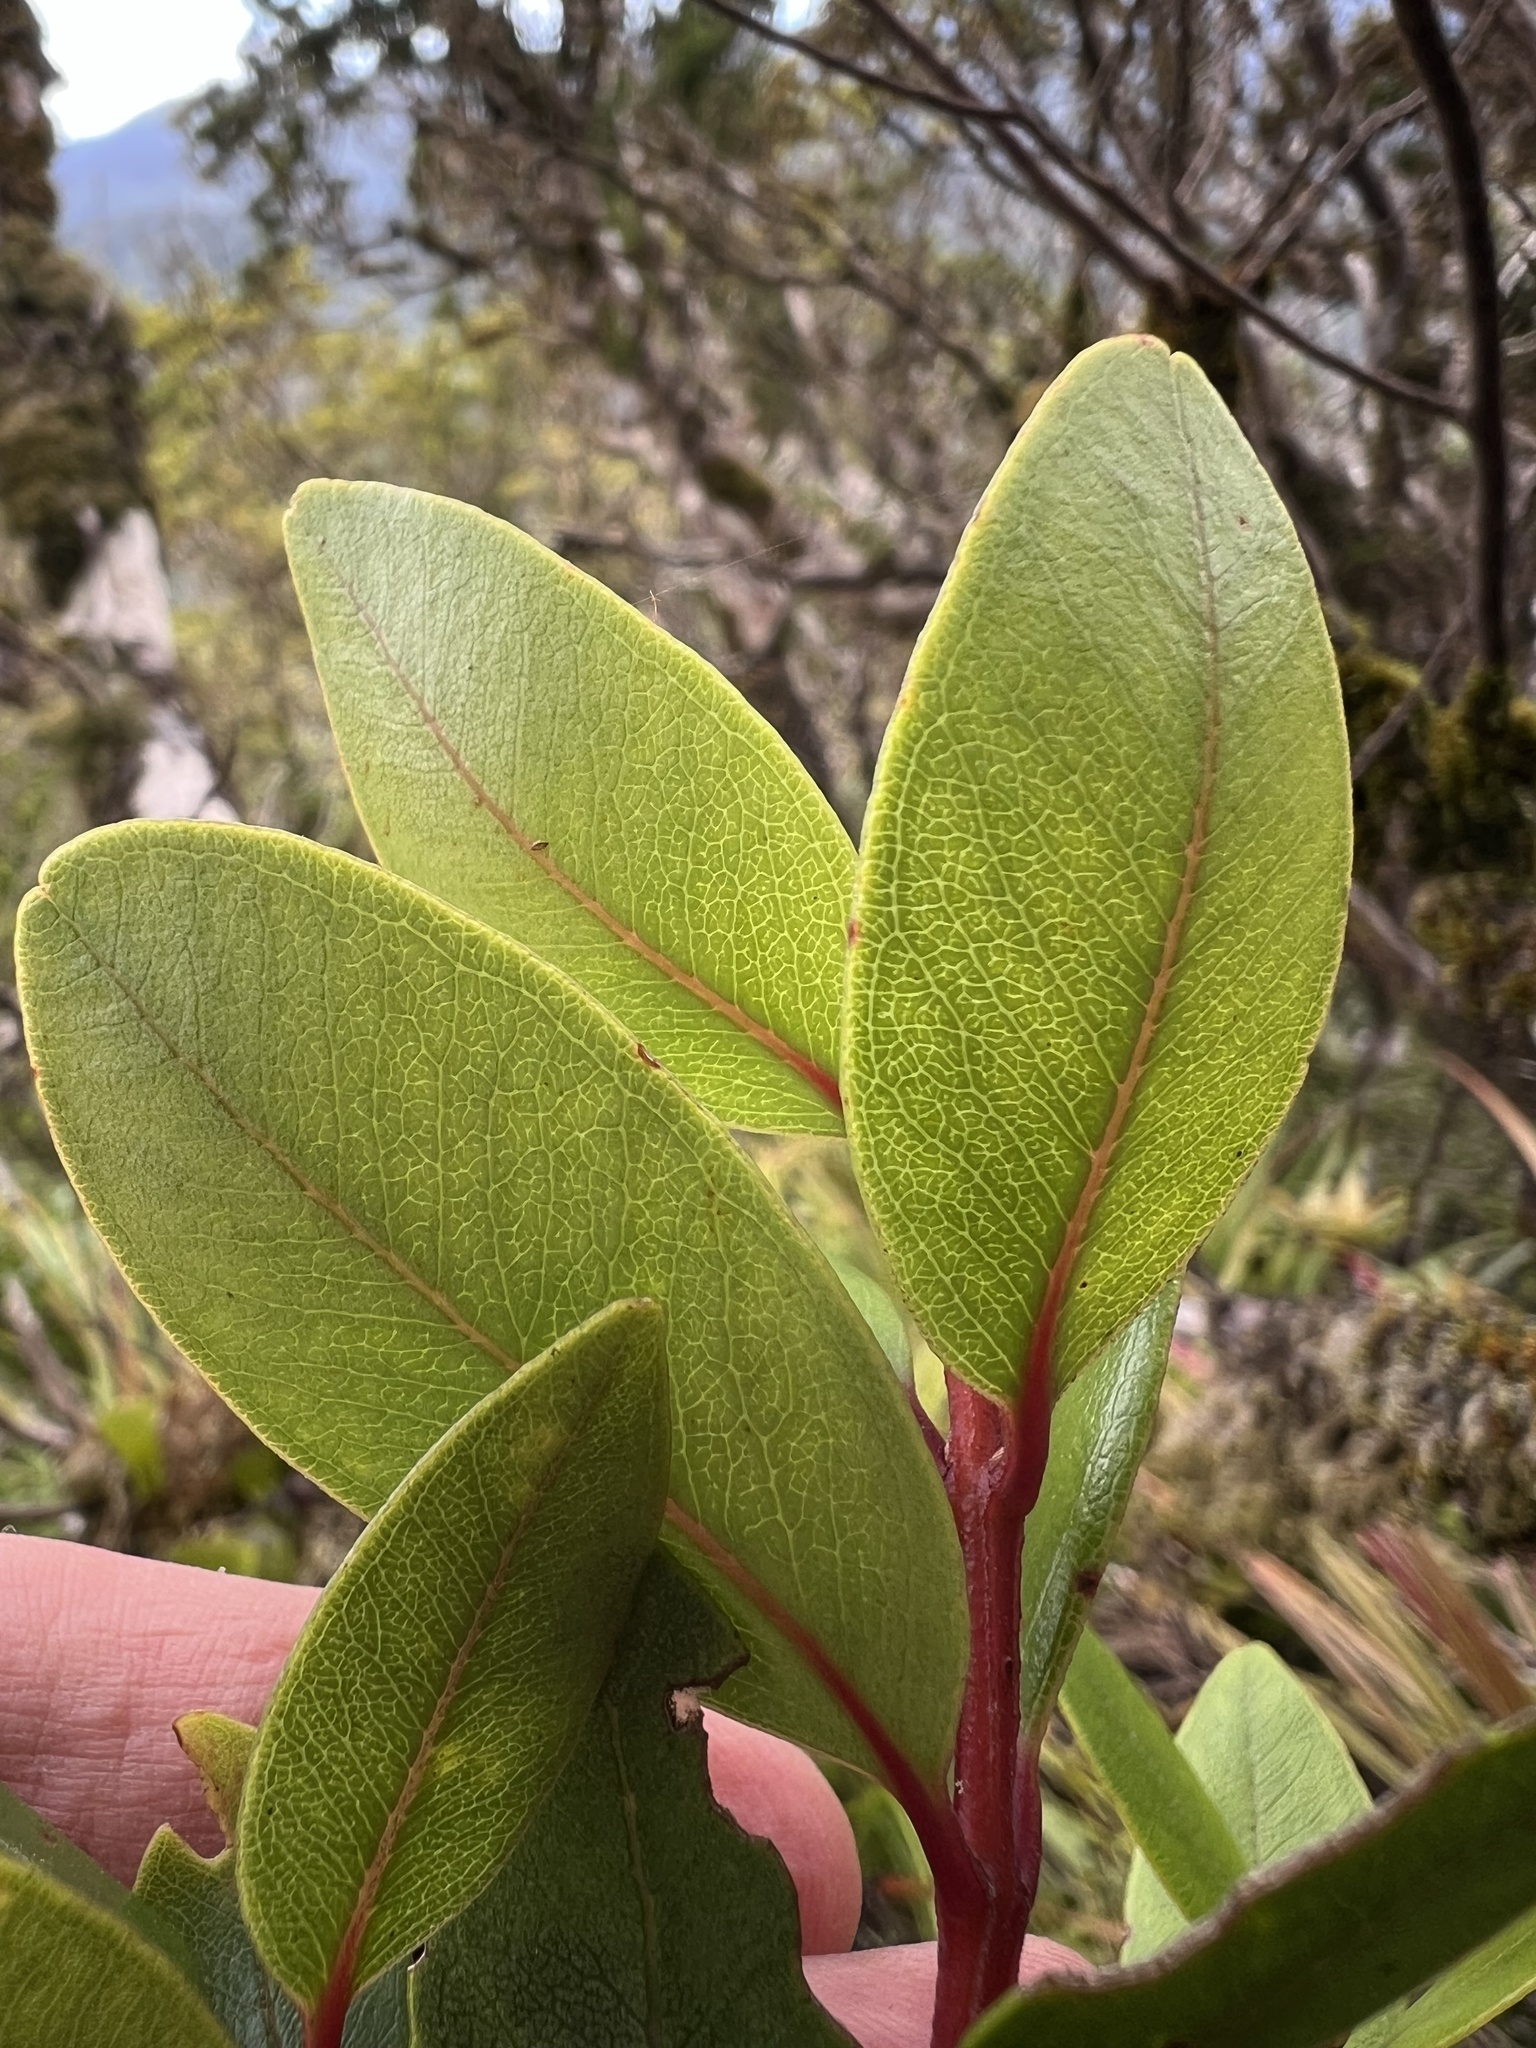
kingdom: Plantae
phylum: Tracheophyta
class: Magnoliopsida
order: Myrtales
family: Myrtaceae
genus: Metrosideros
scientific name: Metrosideros robusta
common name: Northern rata
